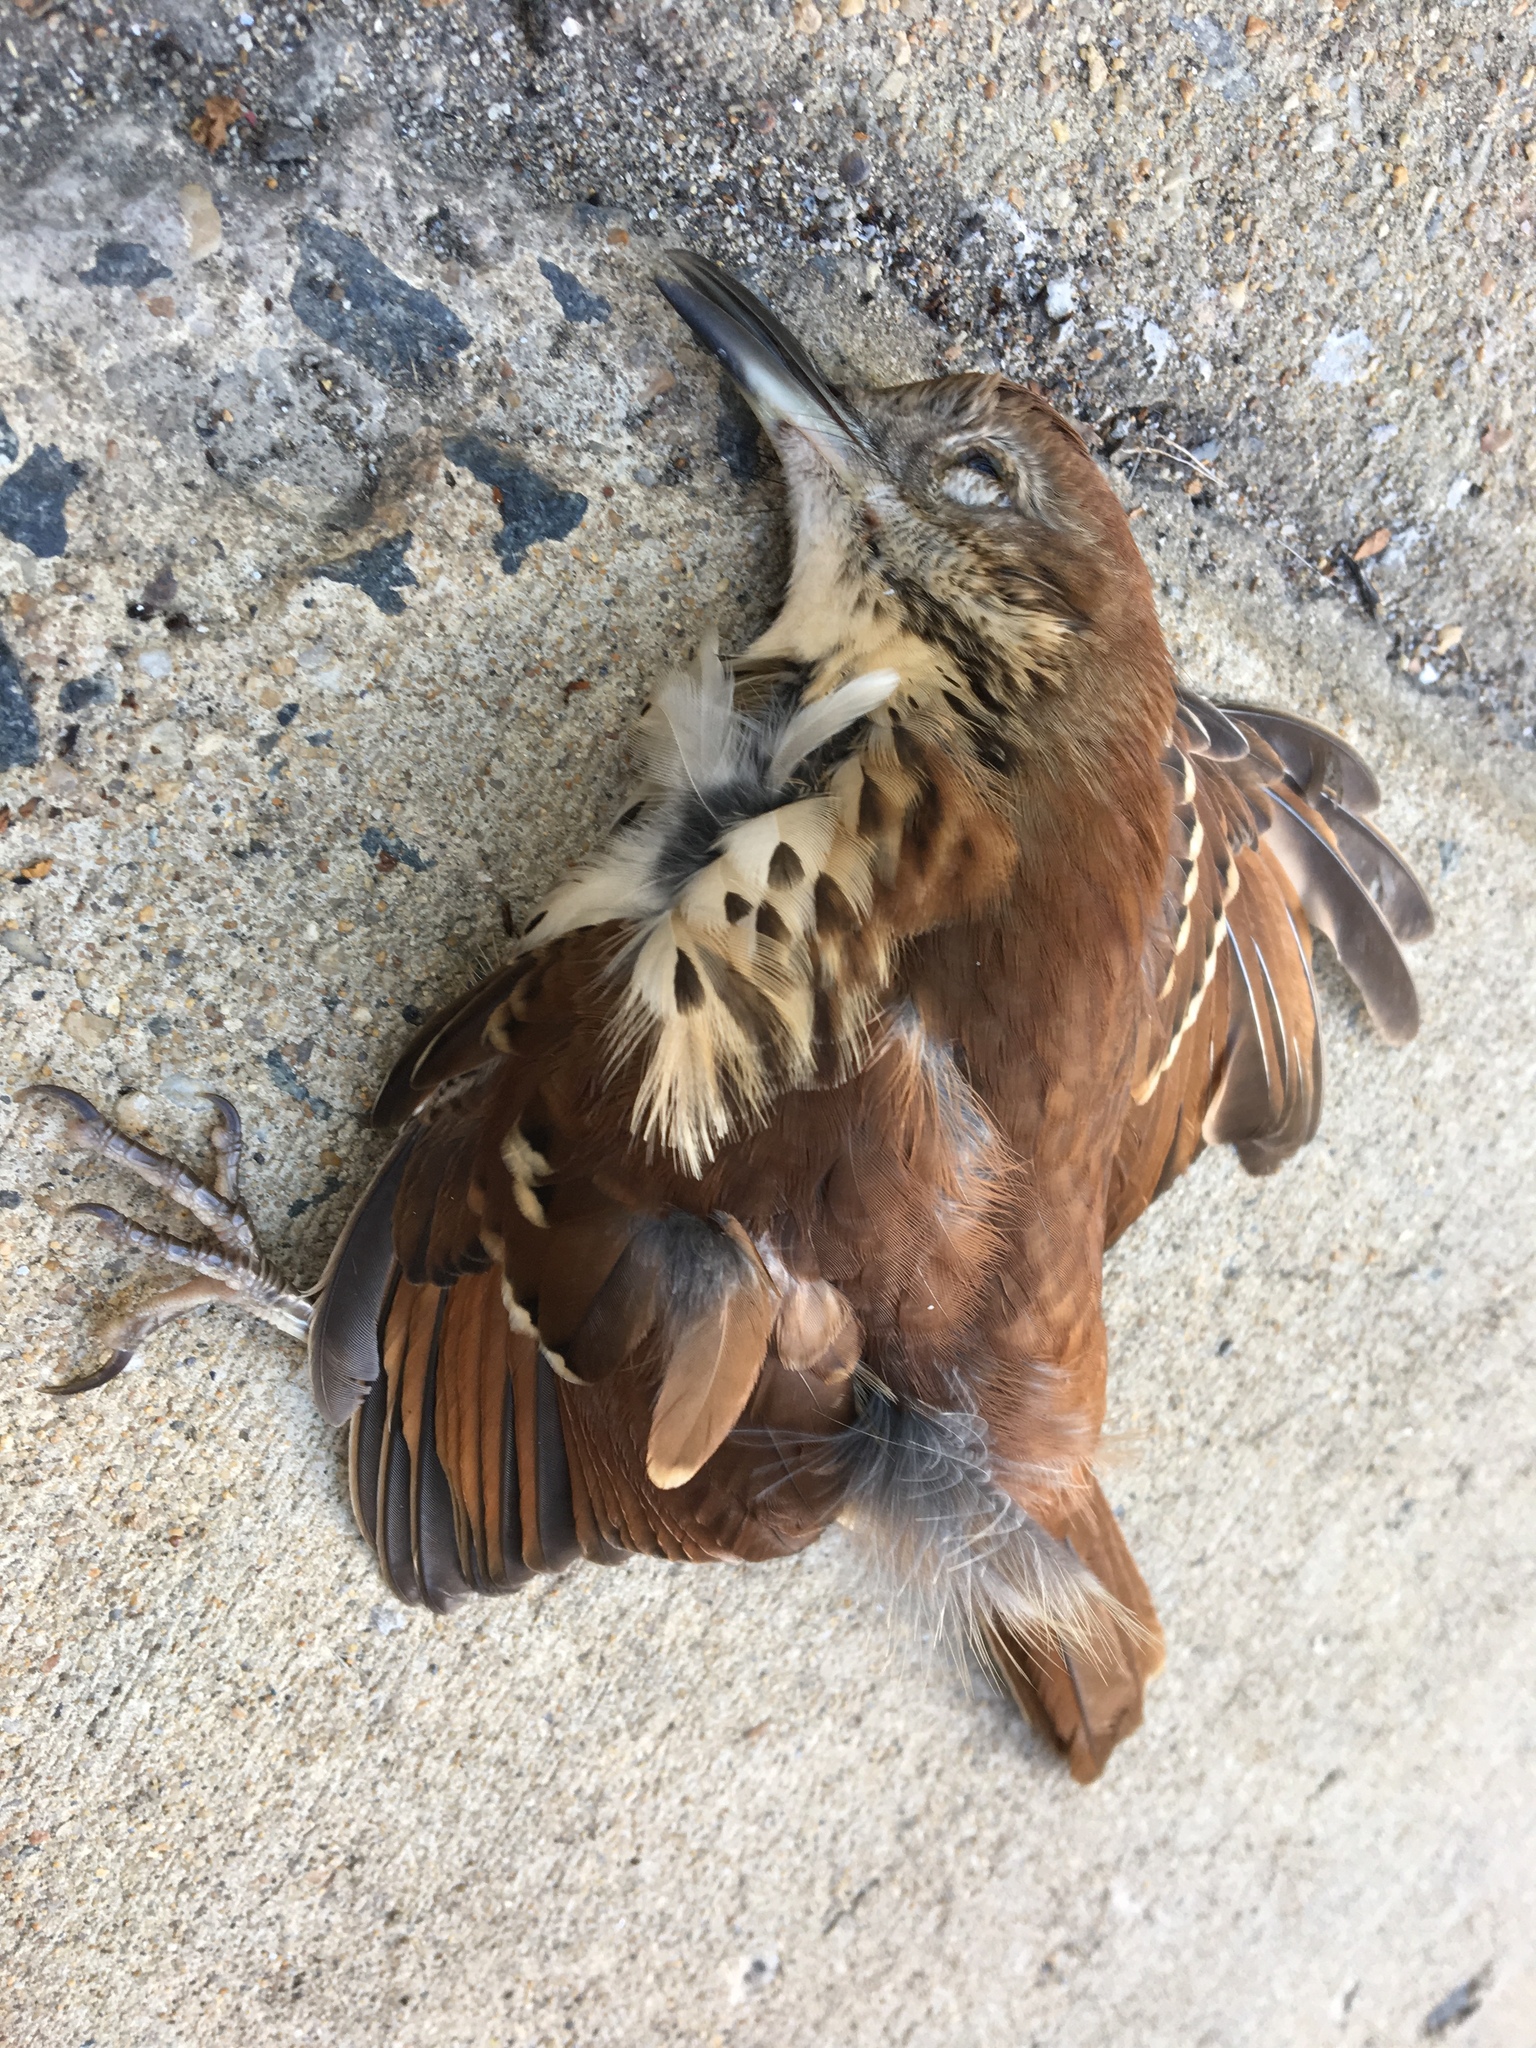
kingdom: Animalia
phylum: Chordata
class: Aves
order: Passeriformes
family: Mimidae
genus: Toxostoma
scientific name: Toxostoma rufum
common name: Brown thrasher
